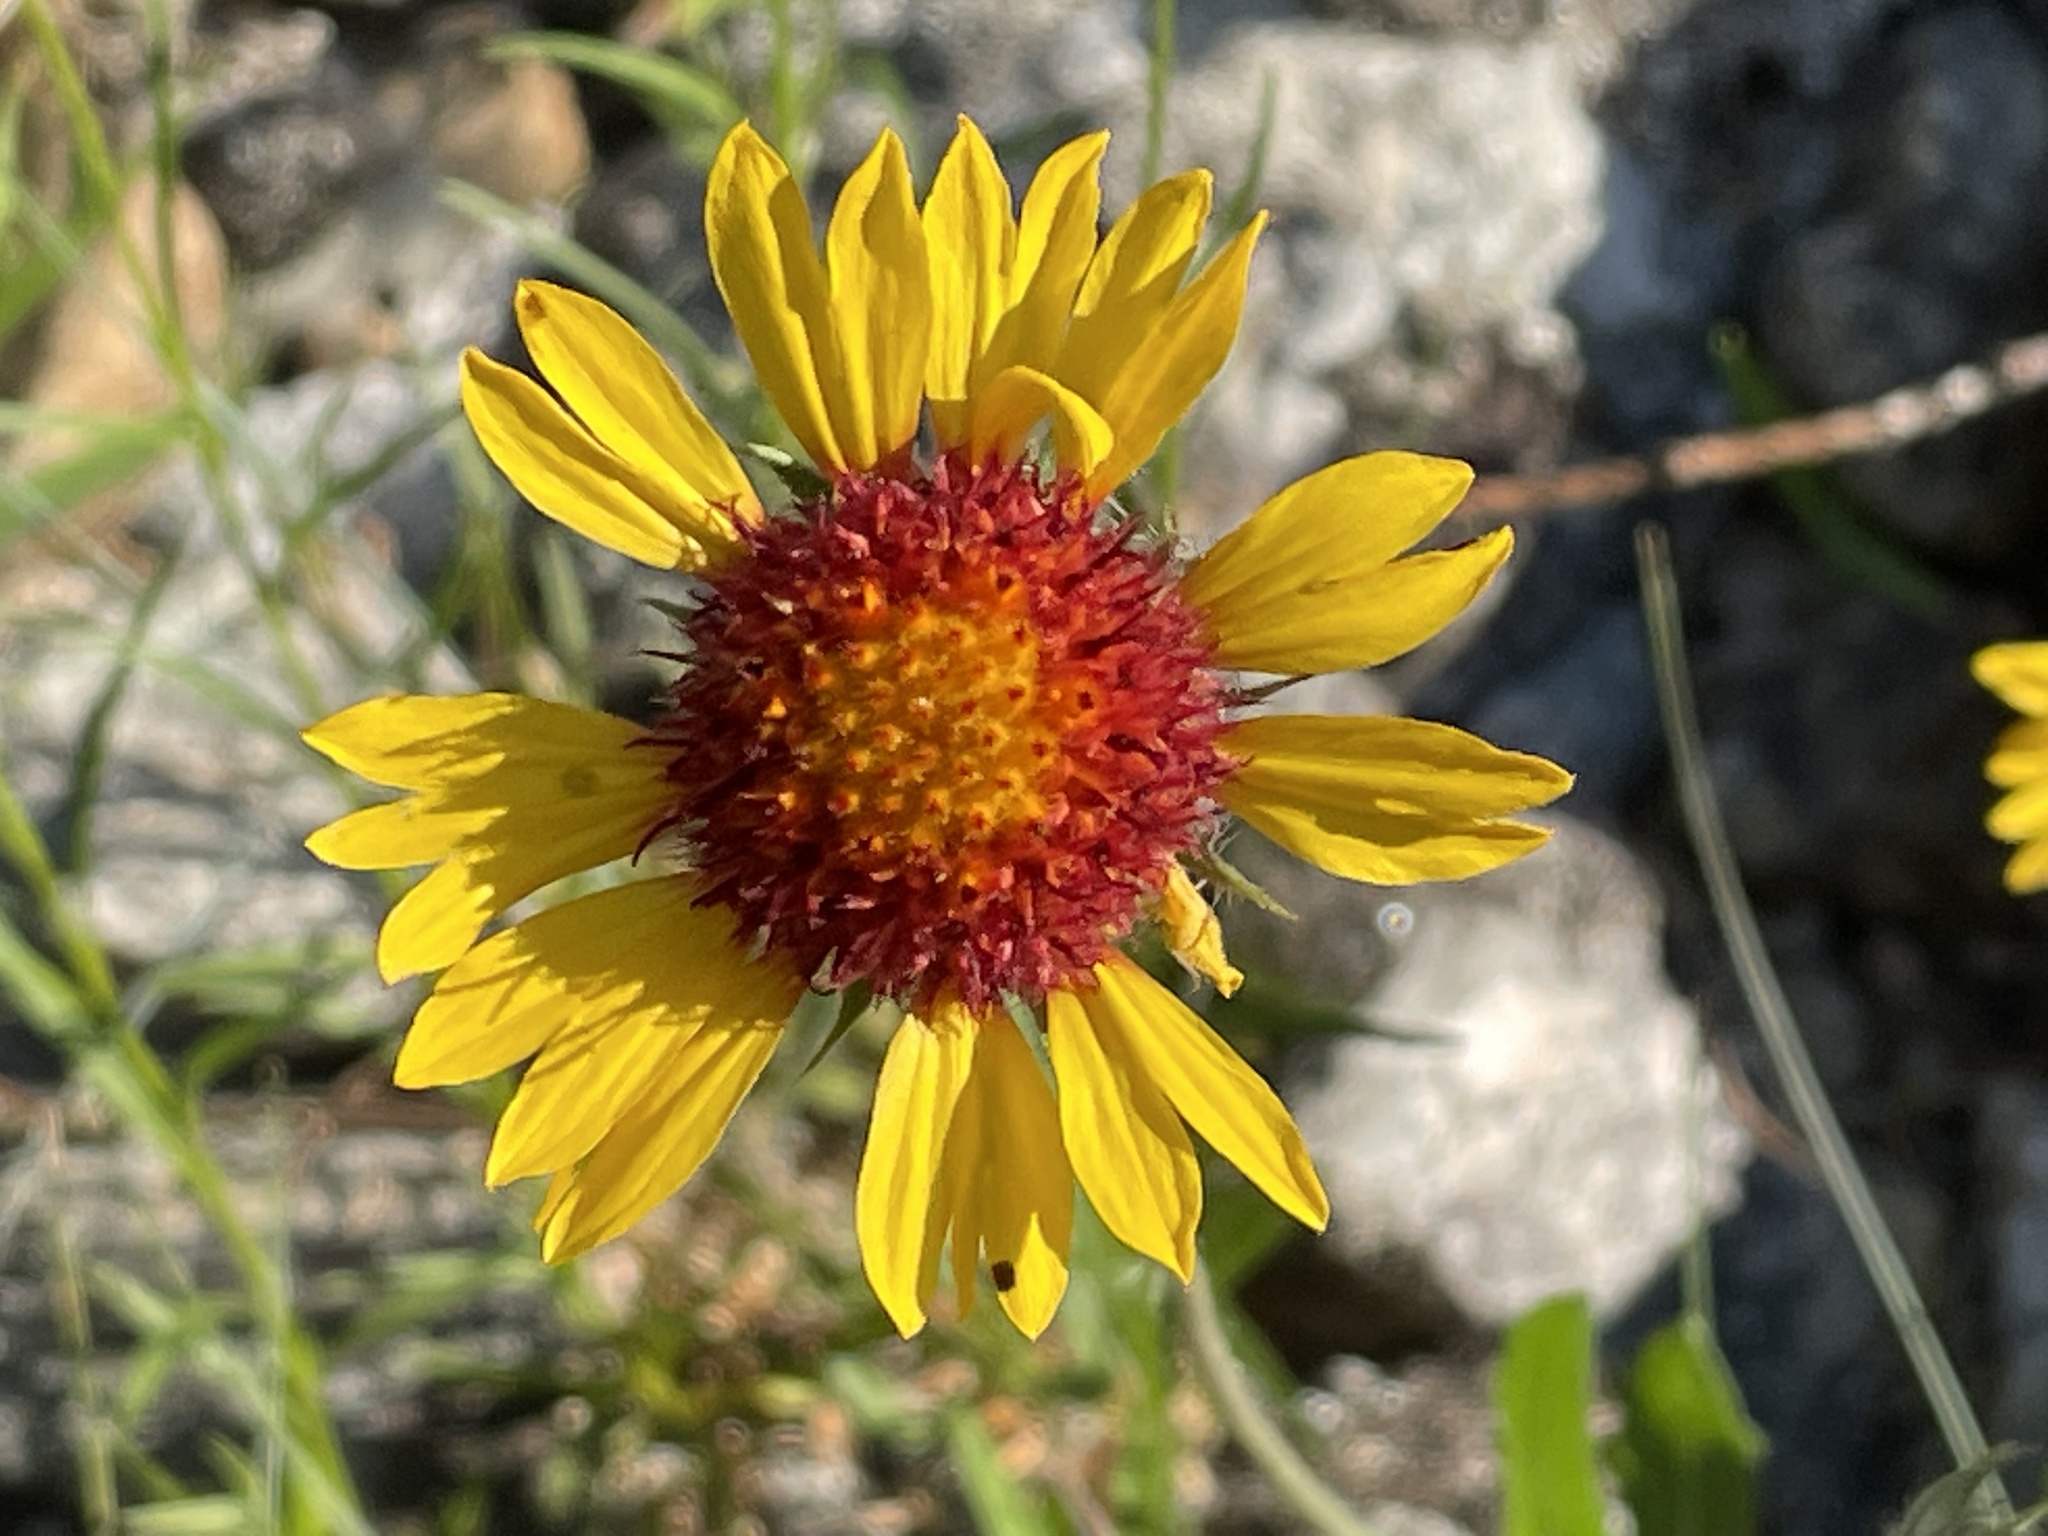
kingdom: Plantae
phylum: Tracheophyta
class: Magnoliopsida
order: Asterales
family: Asteraceae
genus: Gaillardia
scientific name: Gaillardia aristata
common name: Blanket-flower
